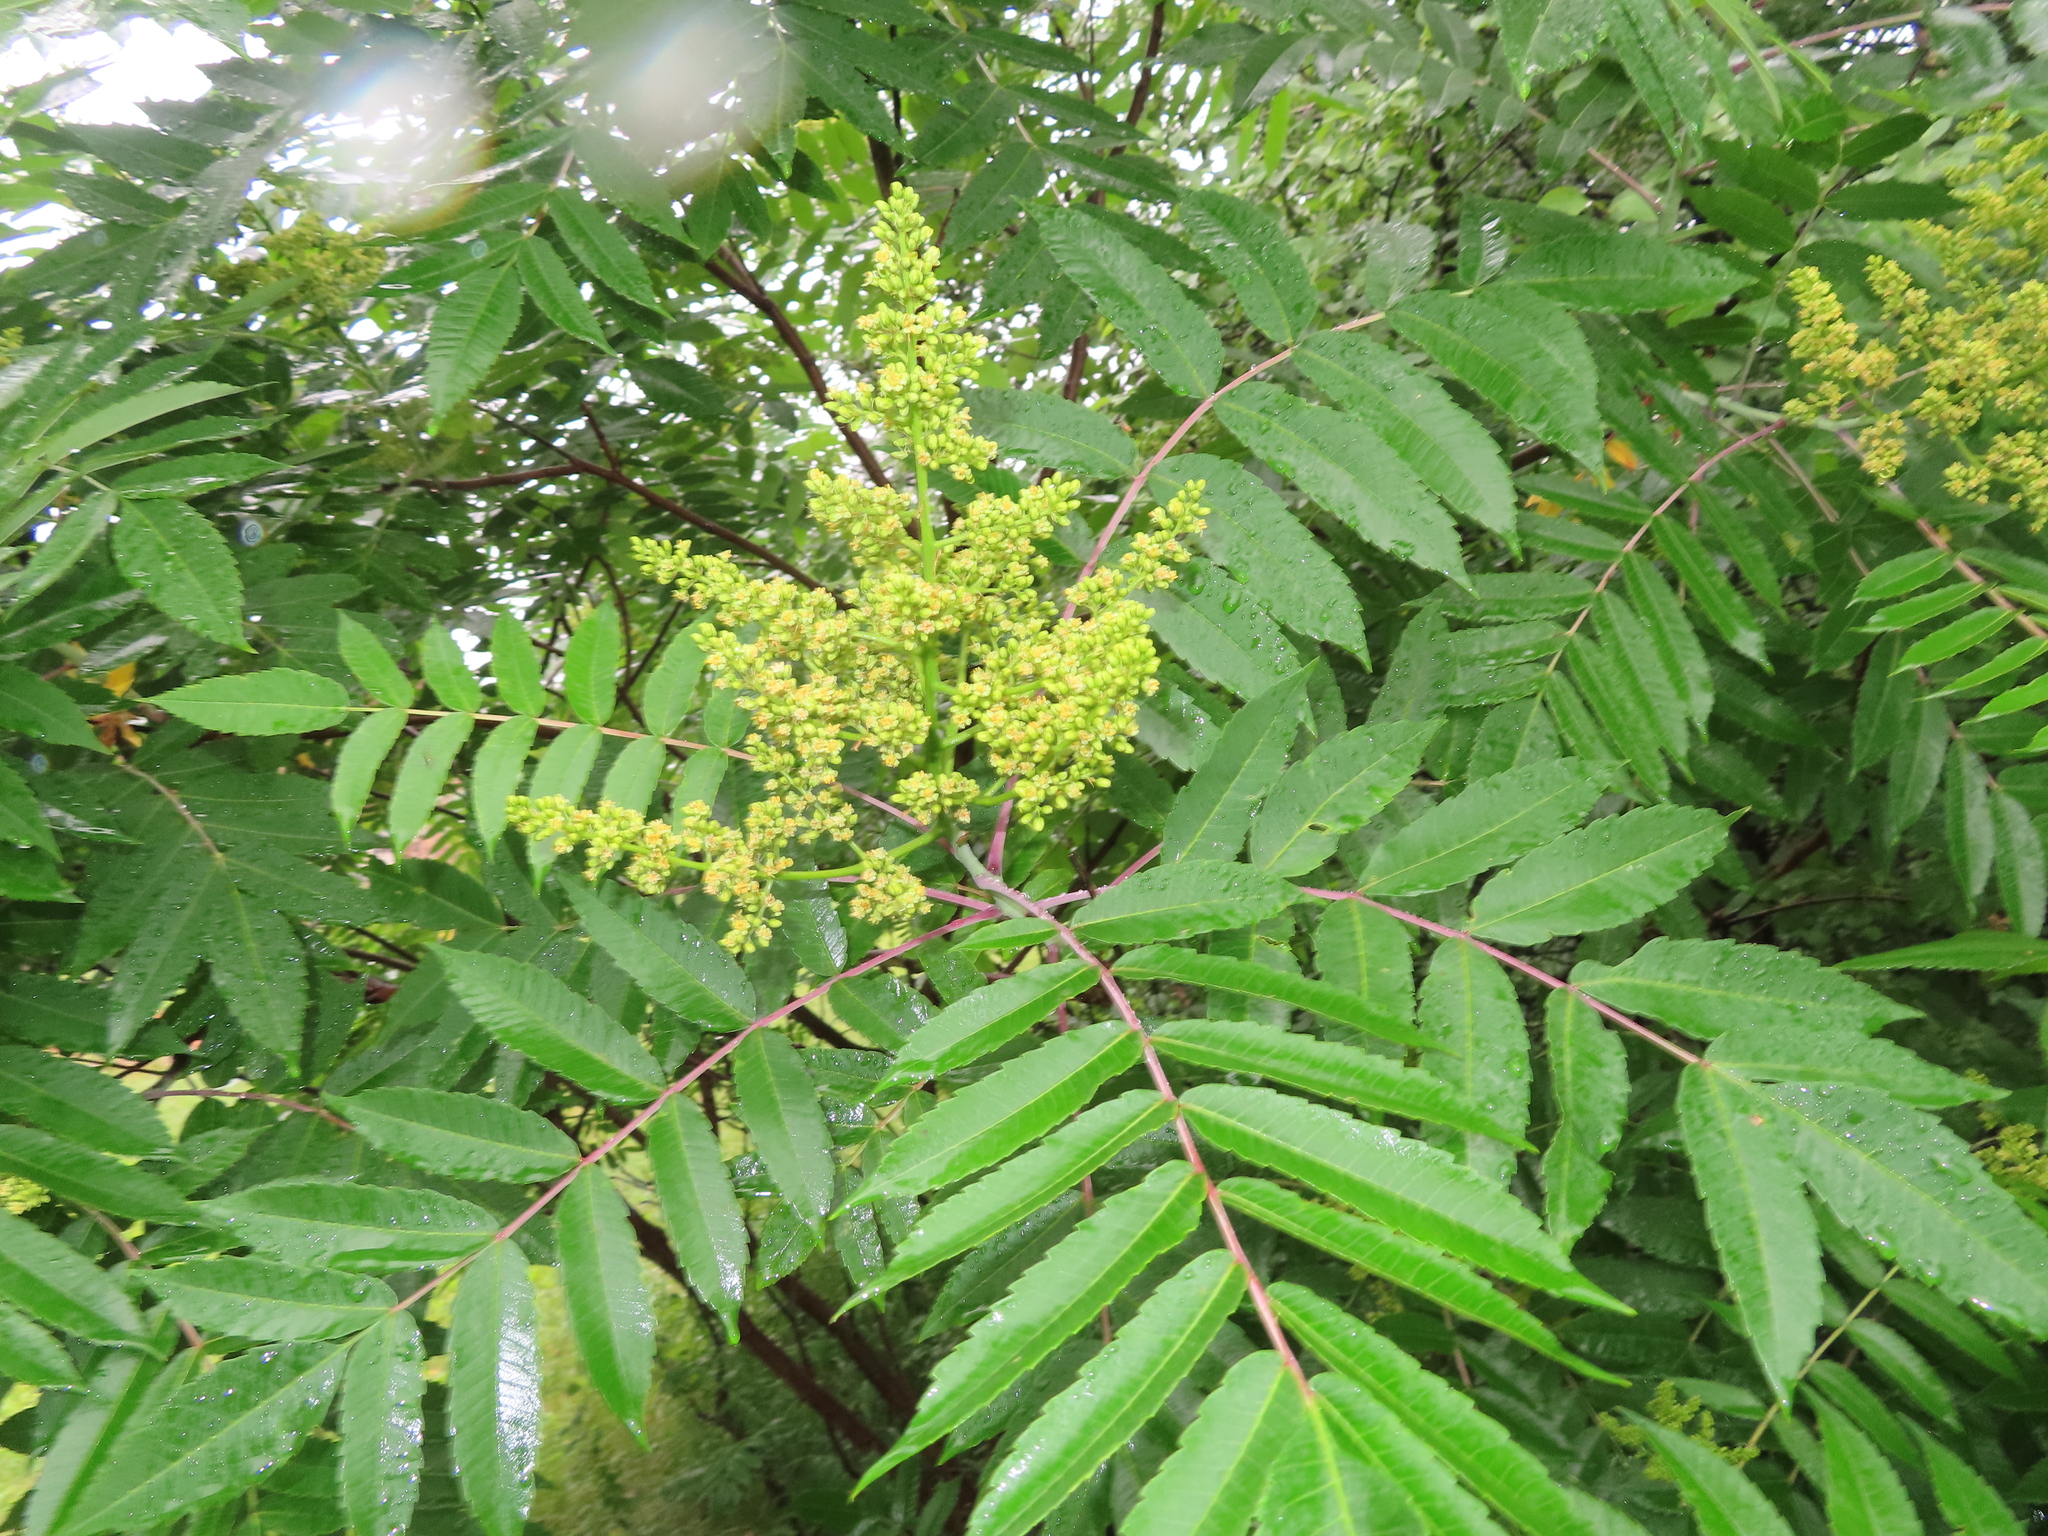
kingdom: Plantae
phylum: Tracheophyta
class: Magnoliopsida
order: Sapindales
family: Anacardiaceae
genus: Rhus
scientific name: Rhus glabra
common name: Scarlet sumac
